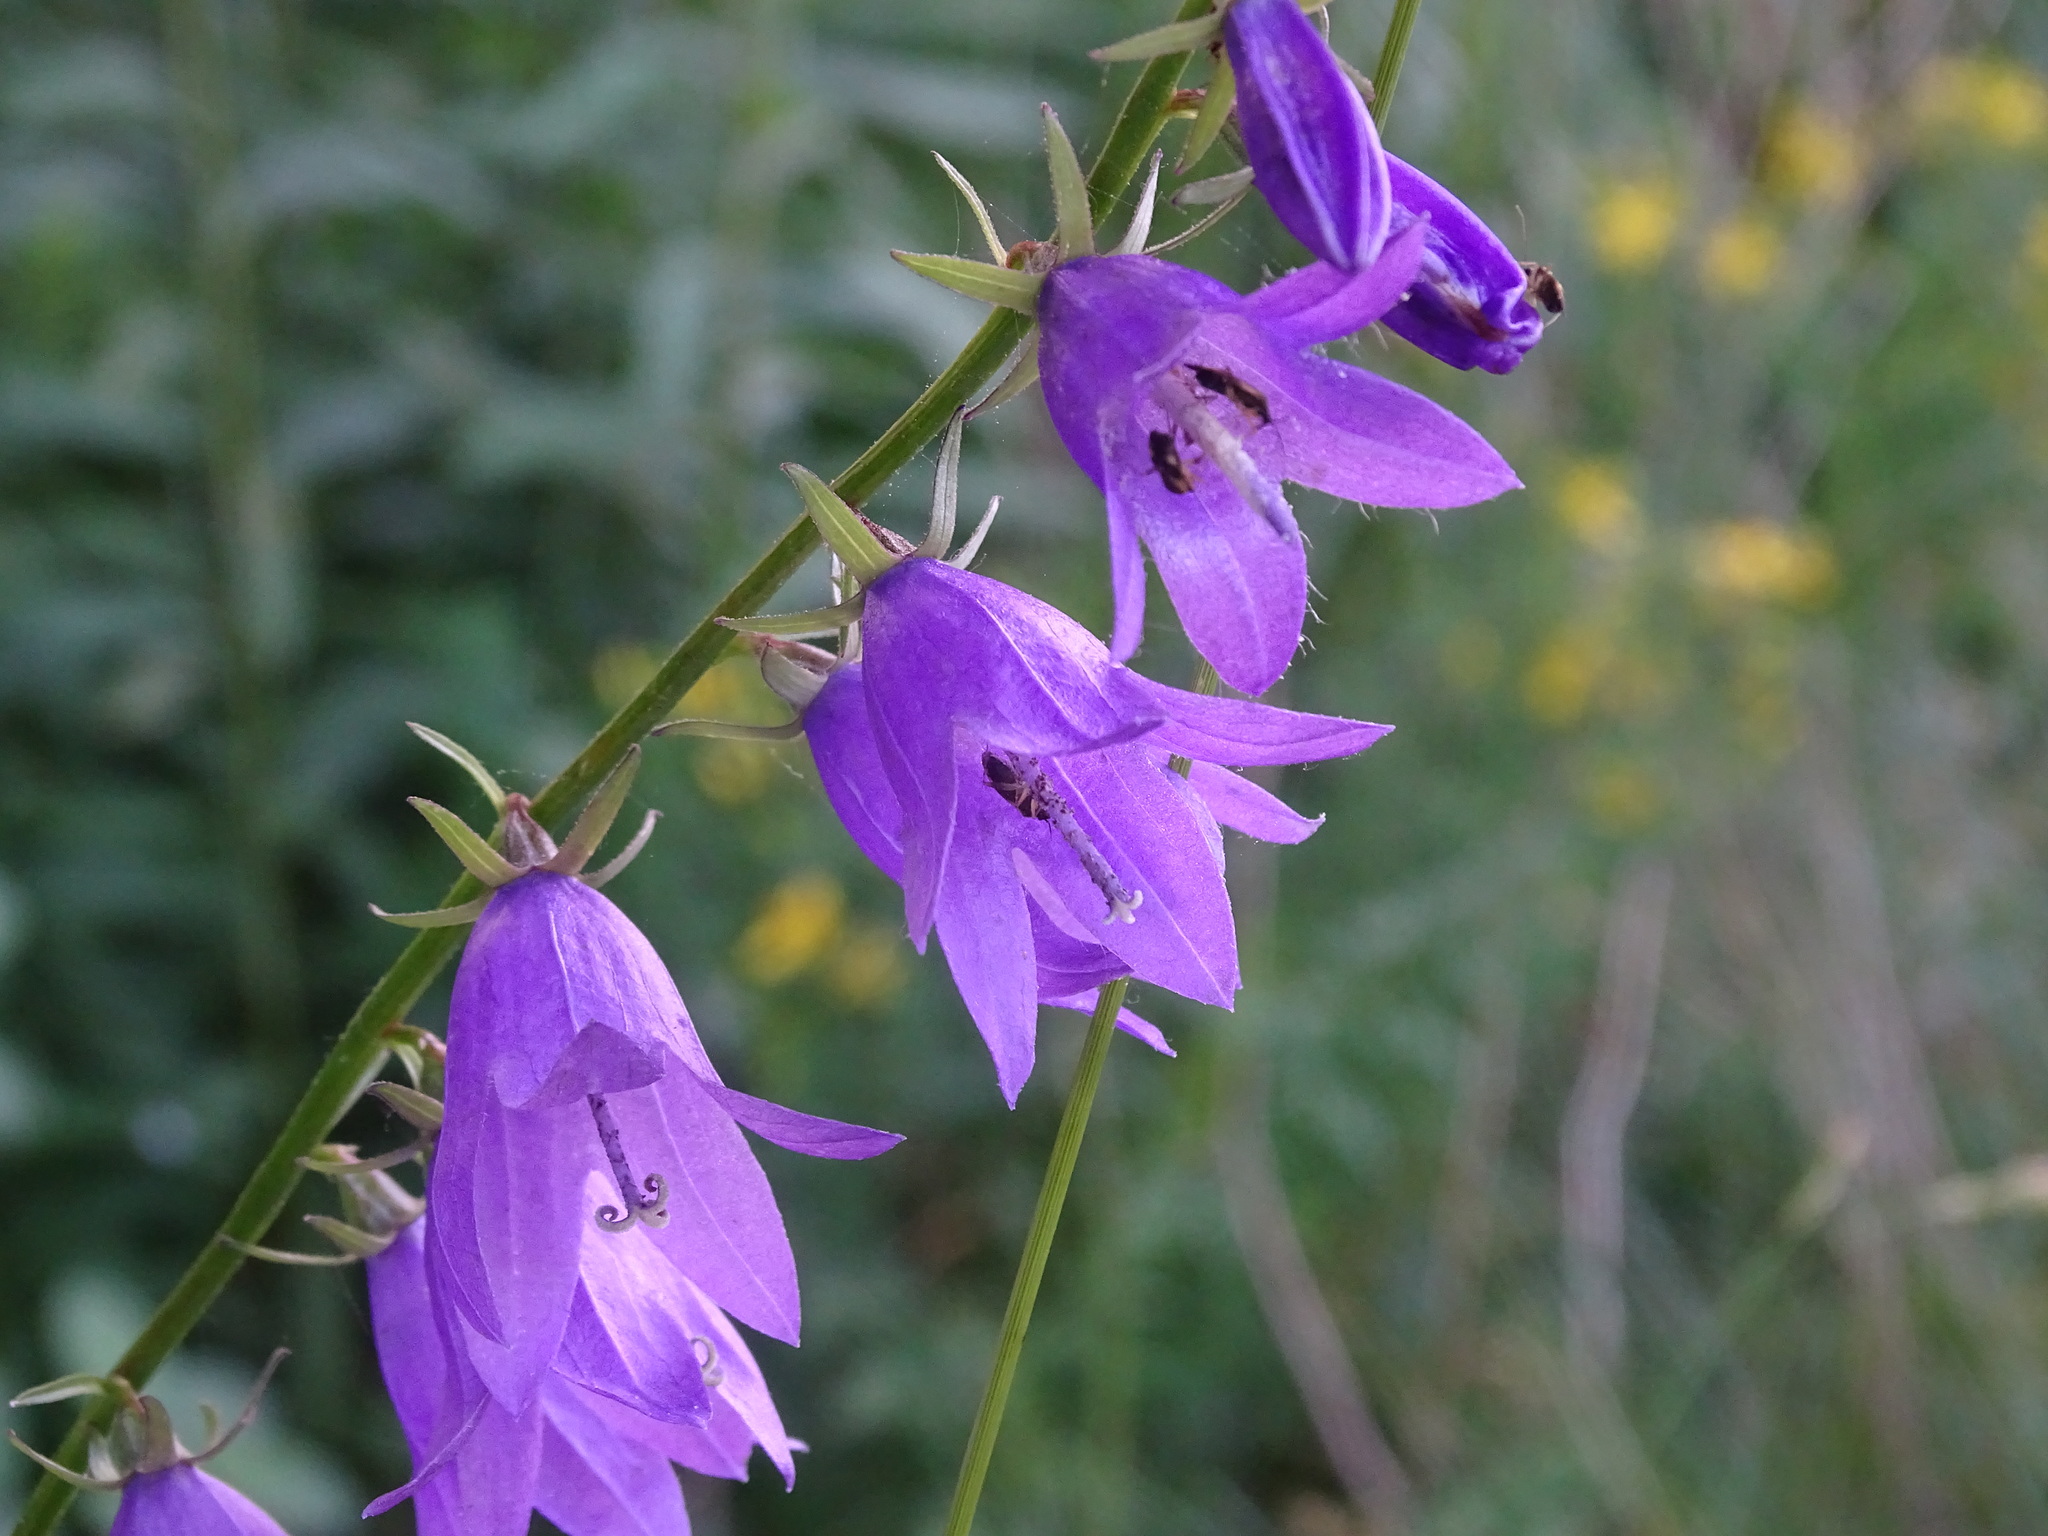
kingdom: Plantae
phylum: Tracheophyta
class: Magnoliopsida
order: Asterales
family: Campanulaceae
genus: Campanula
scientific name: Campanula rapunculoides
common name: Creeping bellflower
